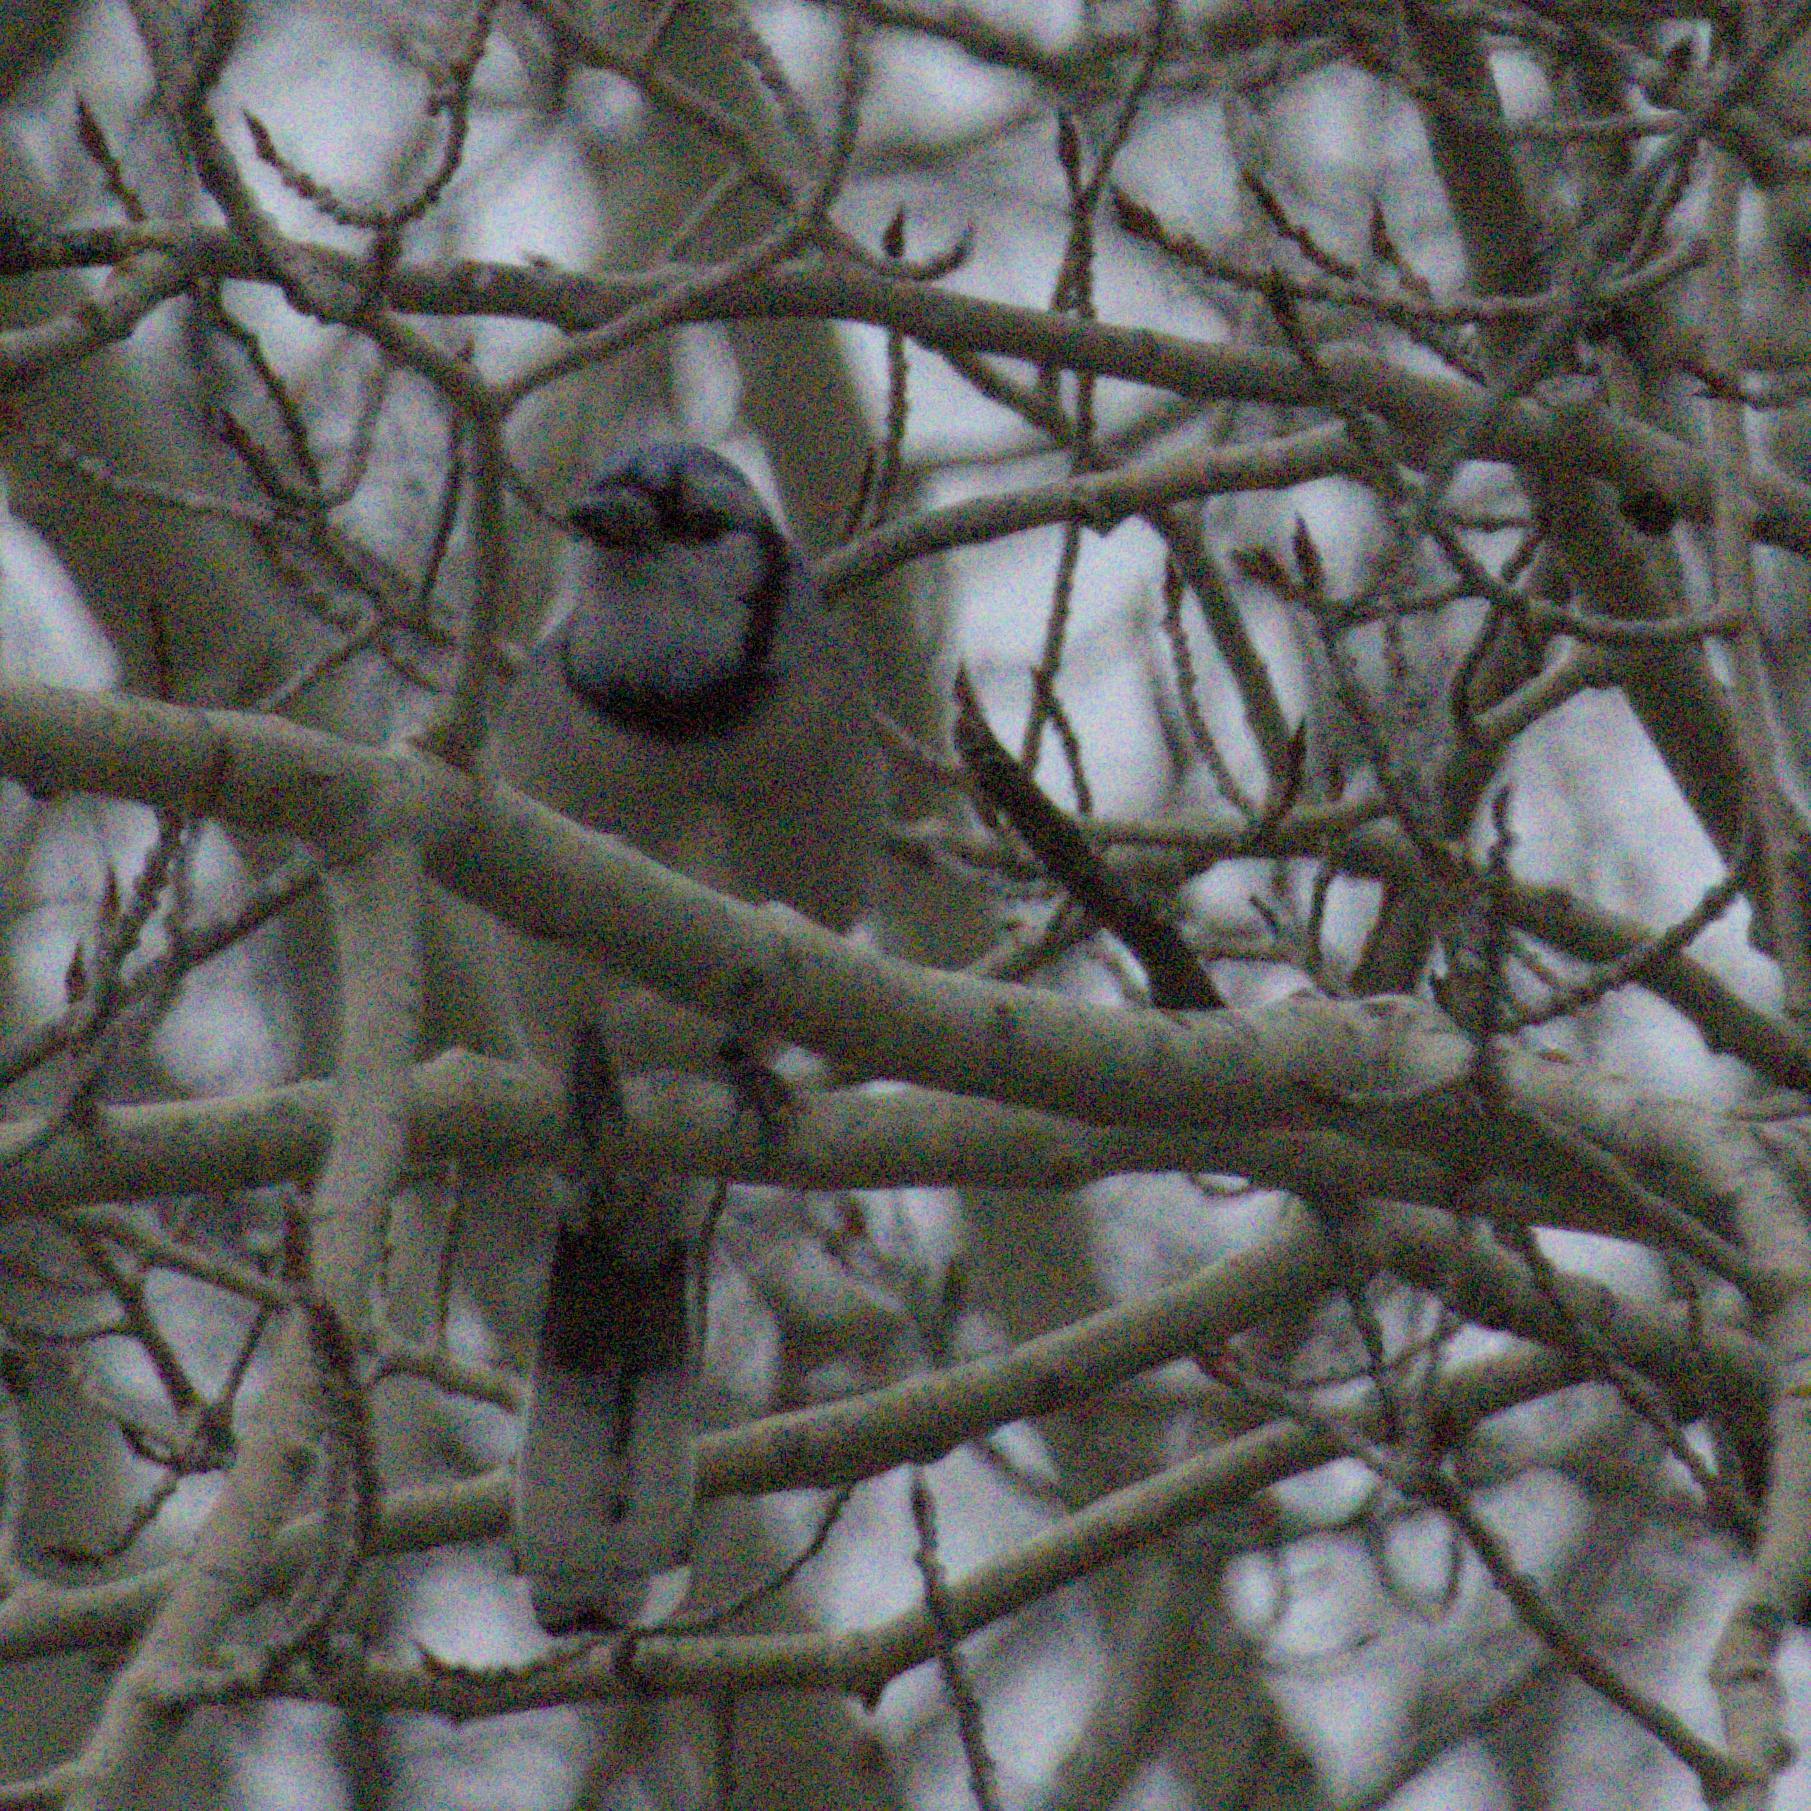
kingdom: Animalia
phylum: Chordata
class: Aves
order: Passeriformes
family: Corvidae
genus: Cyanocitta
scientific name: Cyanocitta cristata
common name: Blue jay
